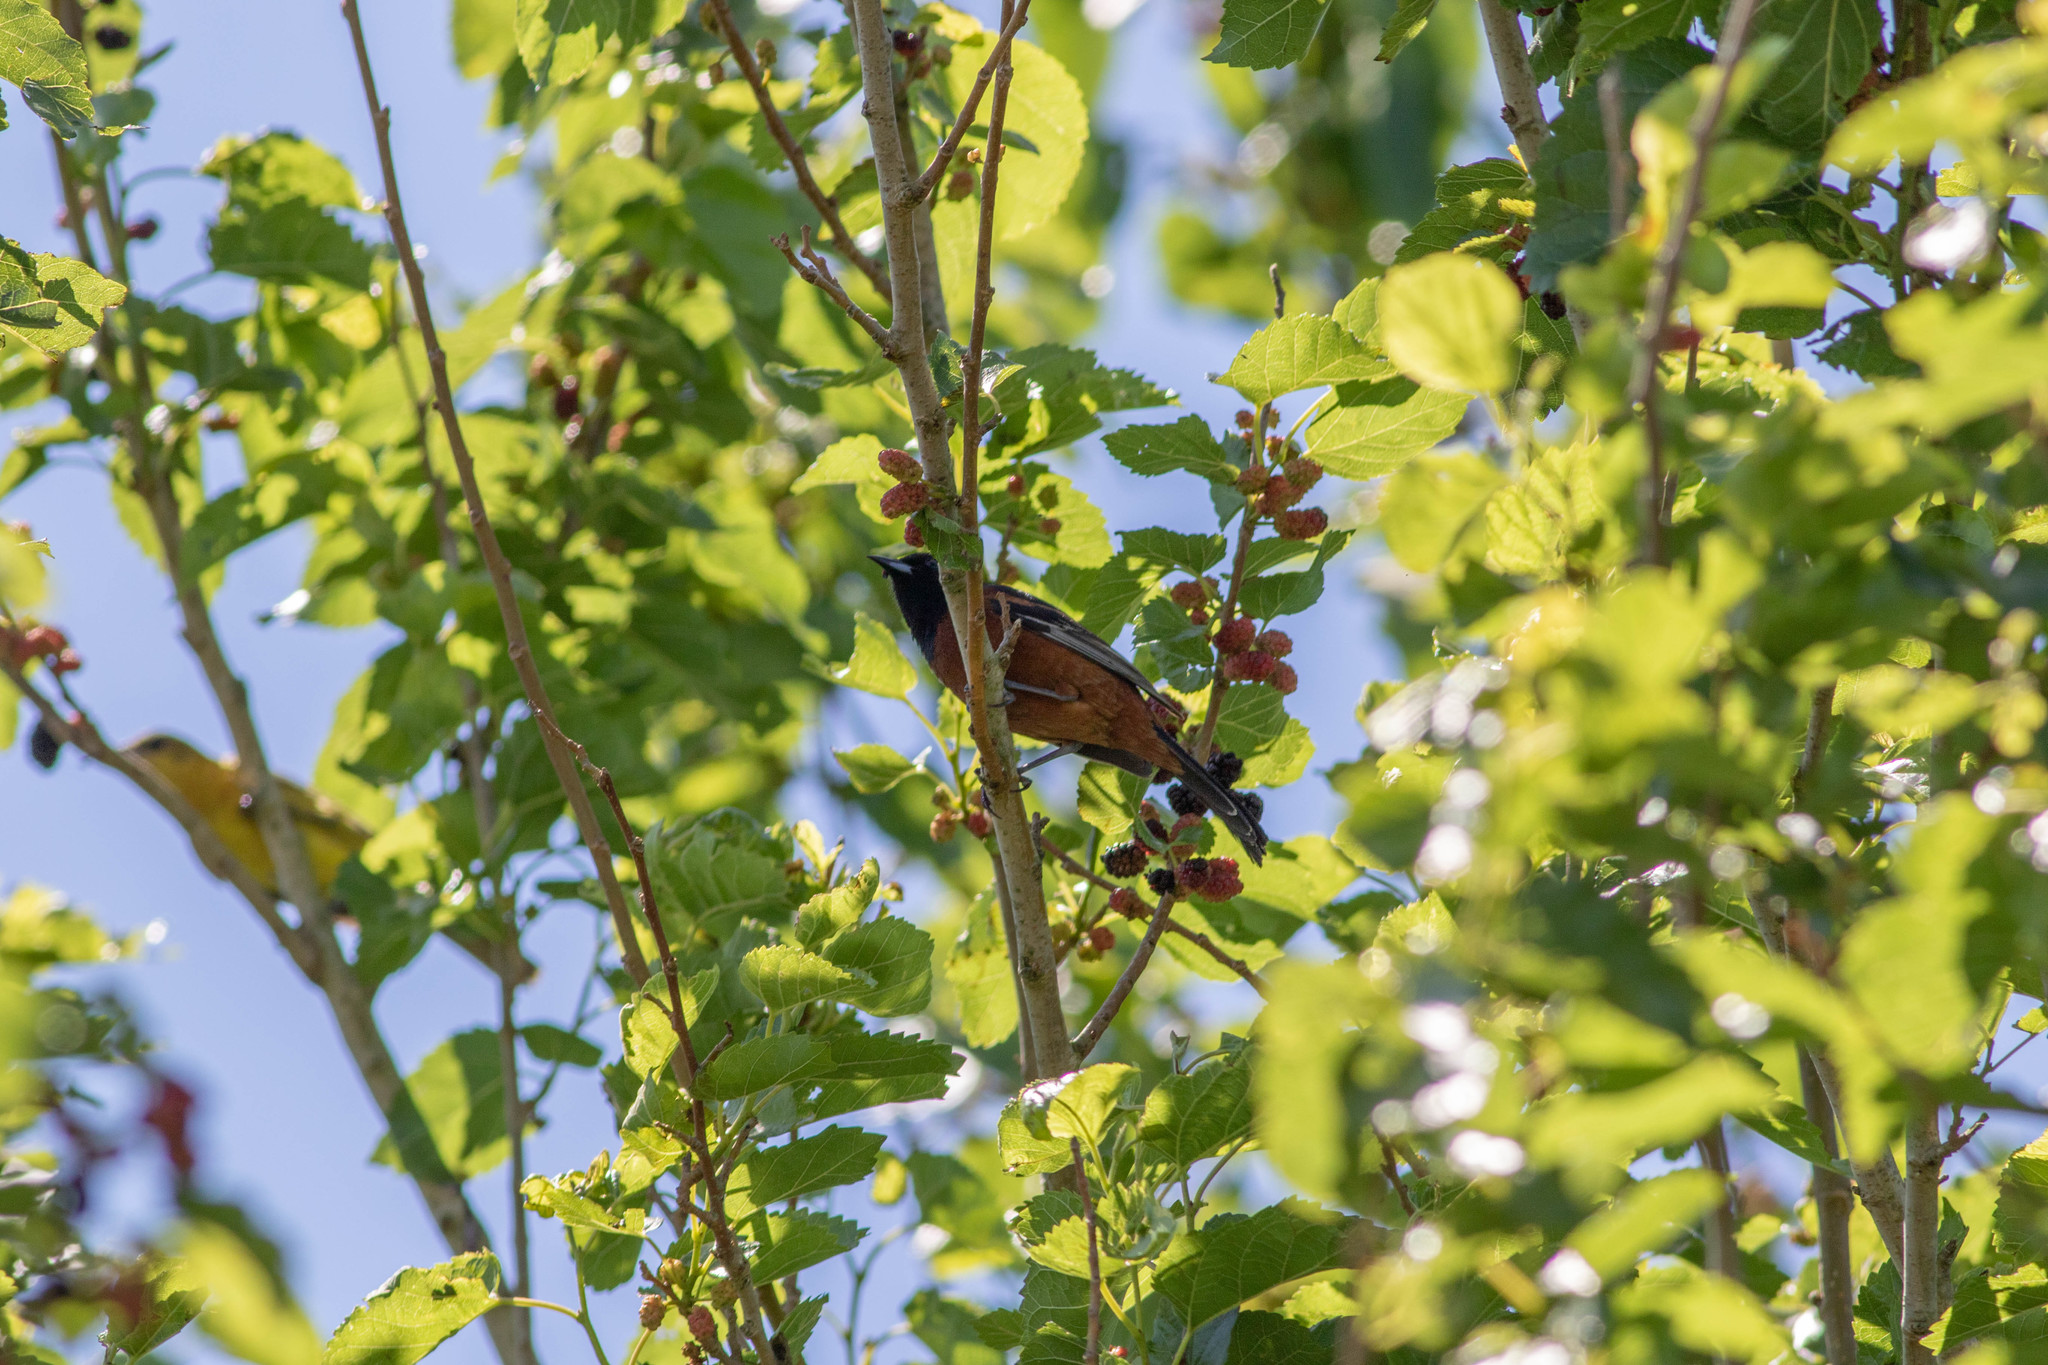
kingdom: Animalia
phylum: Chordata
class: Aves
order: Passeriformes
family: Icteridae
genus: Icterus
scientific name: Icterus spurius
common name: Orchard oriole
